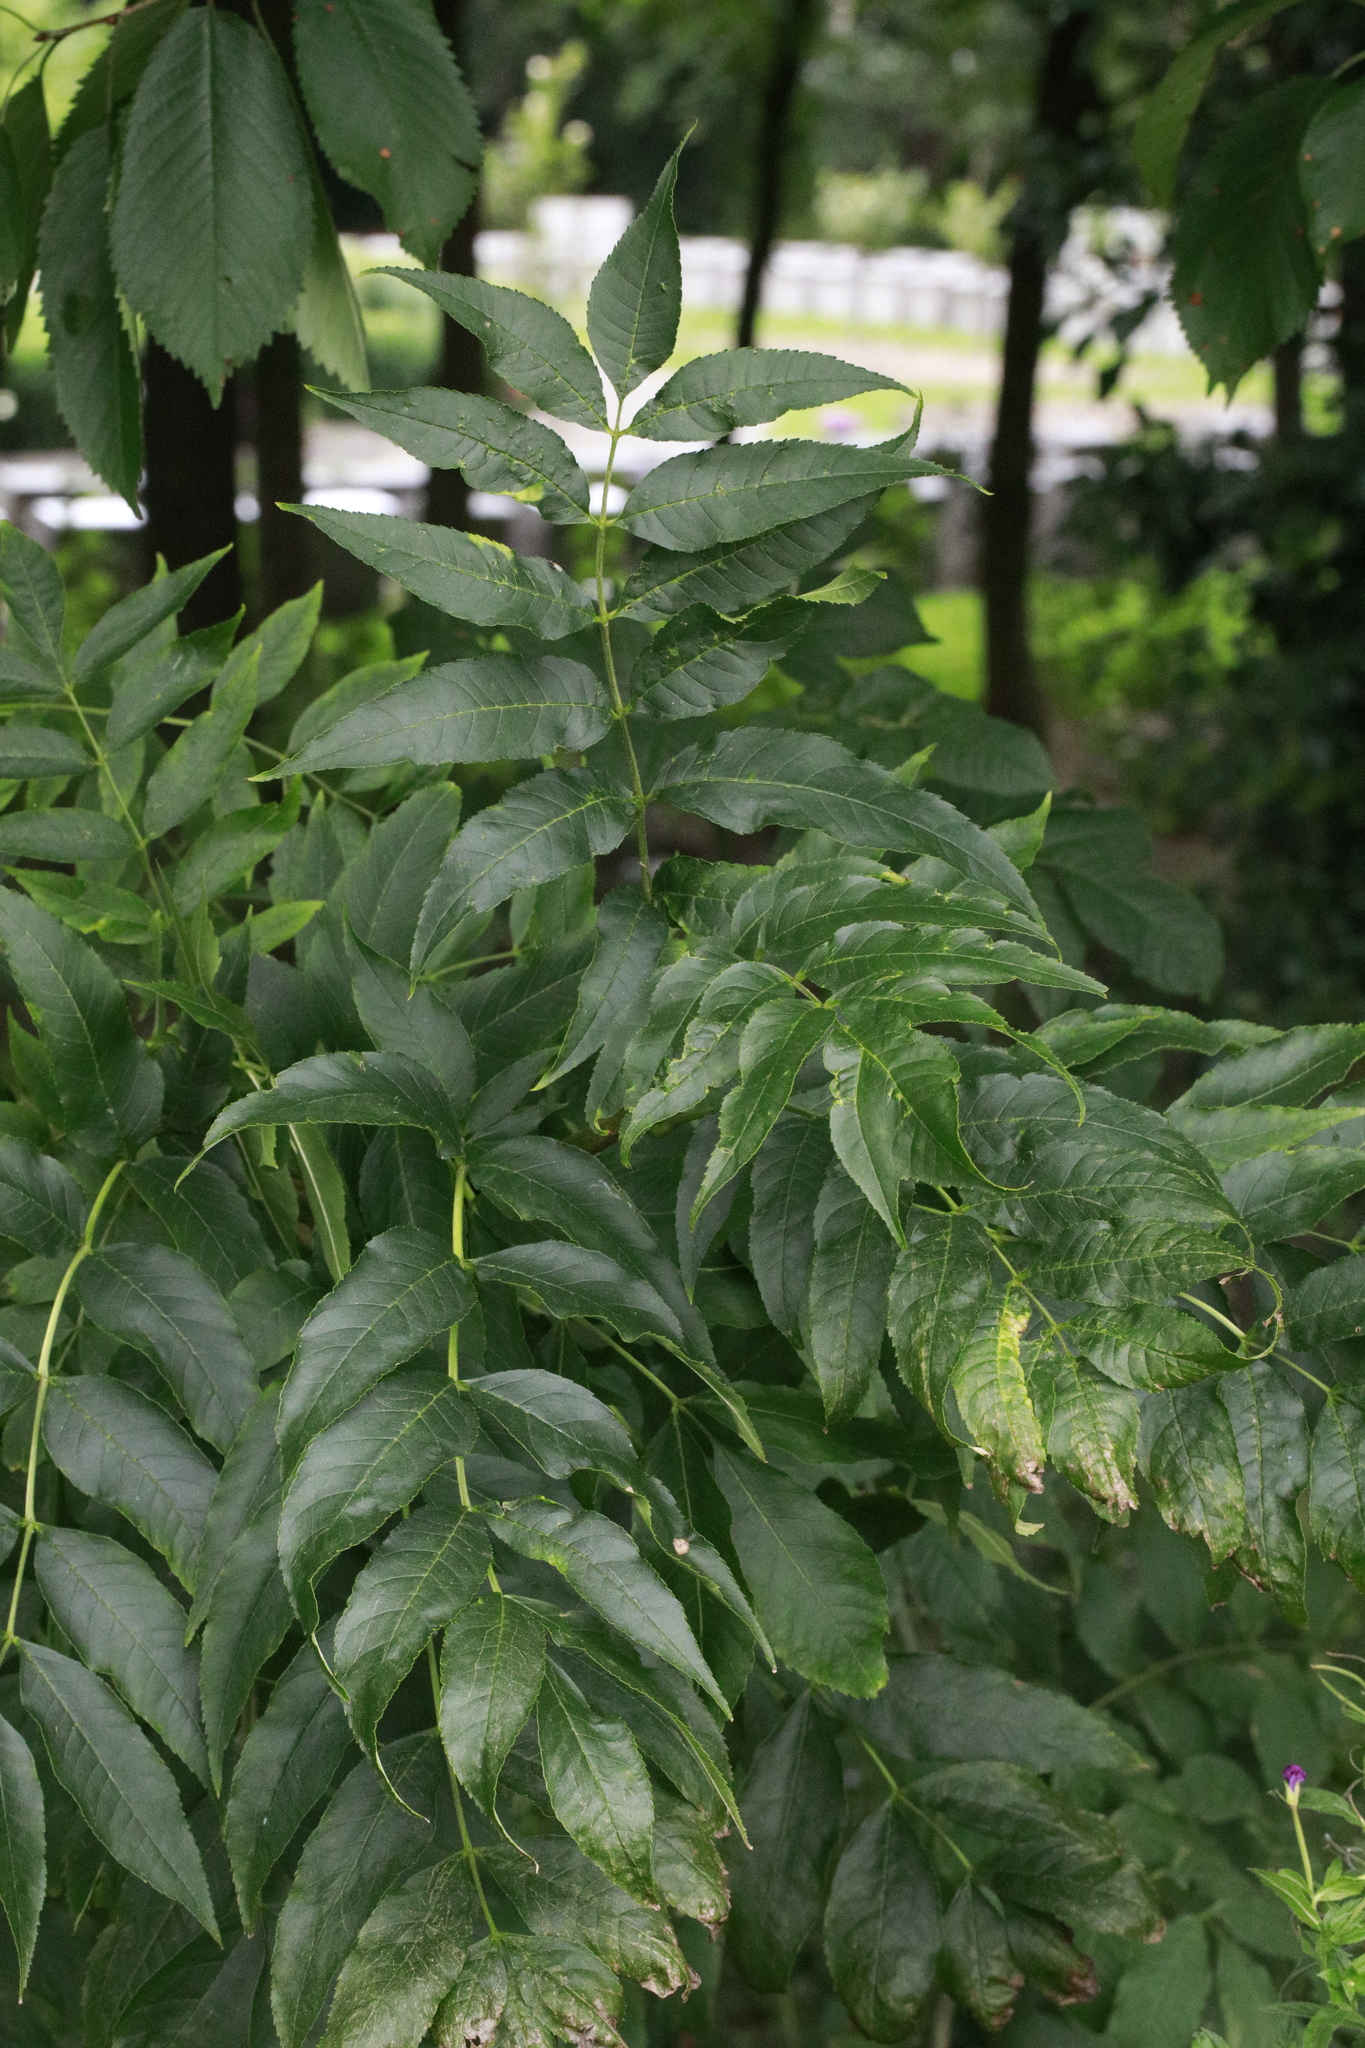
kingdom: Plantae
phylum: Tracheophyta
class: Magnoliopsida
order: Lamiales
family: Oleaceae
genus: Fraxinus
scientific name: Fraxinus excelsior
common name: European ash
